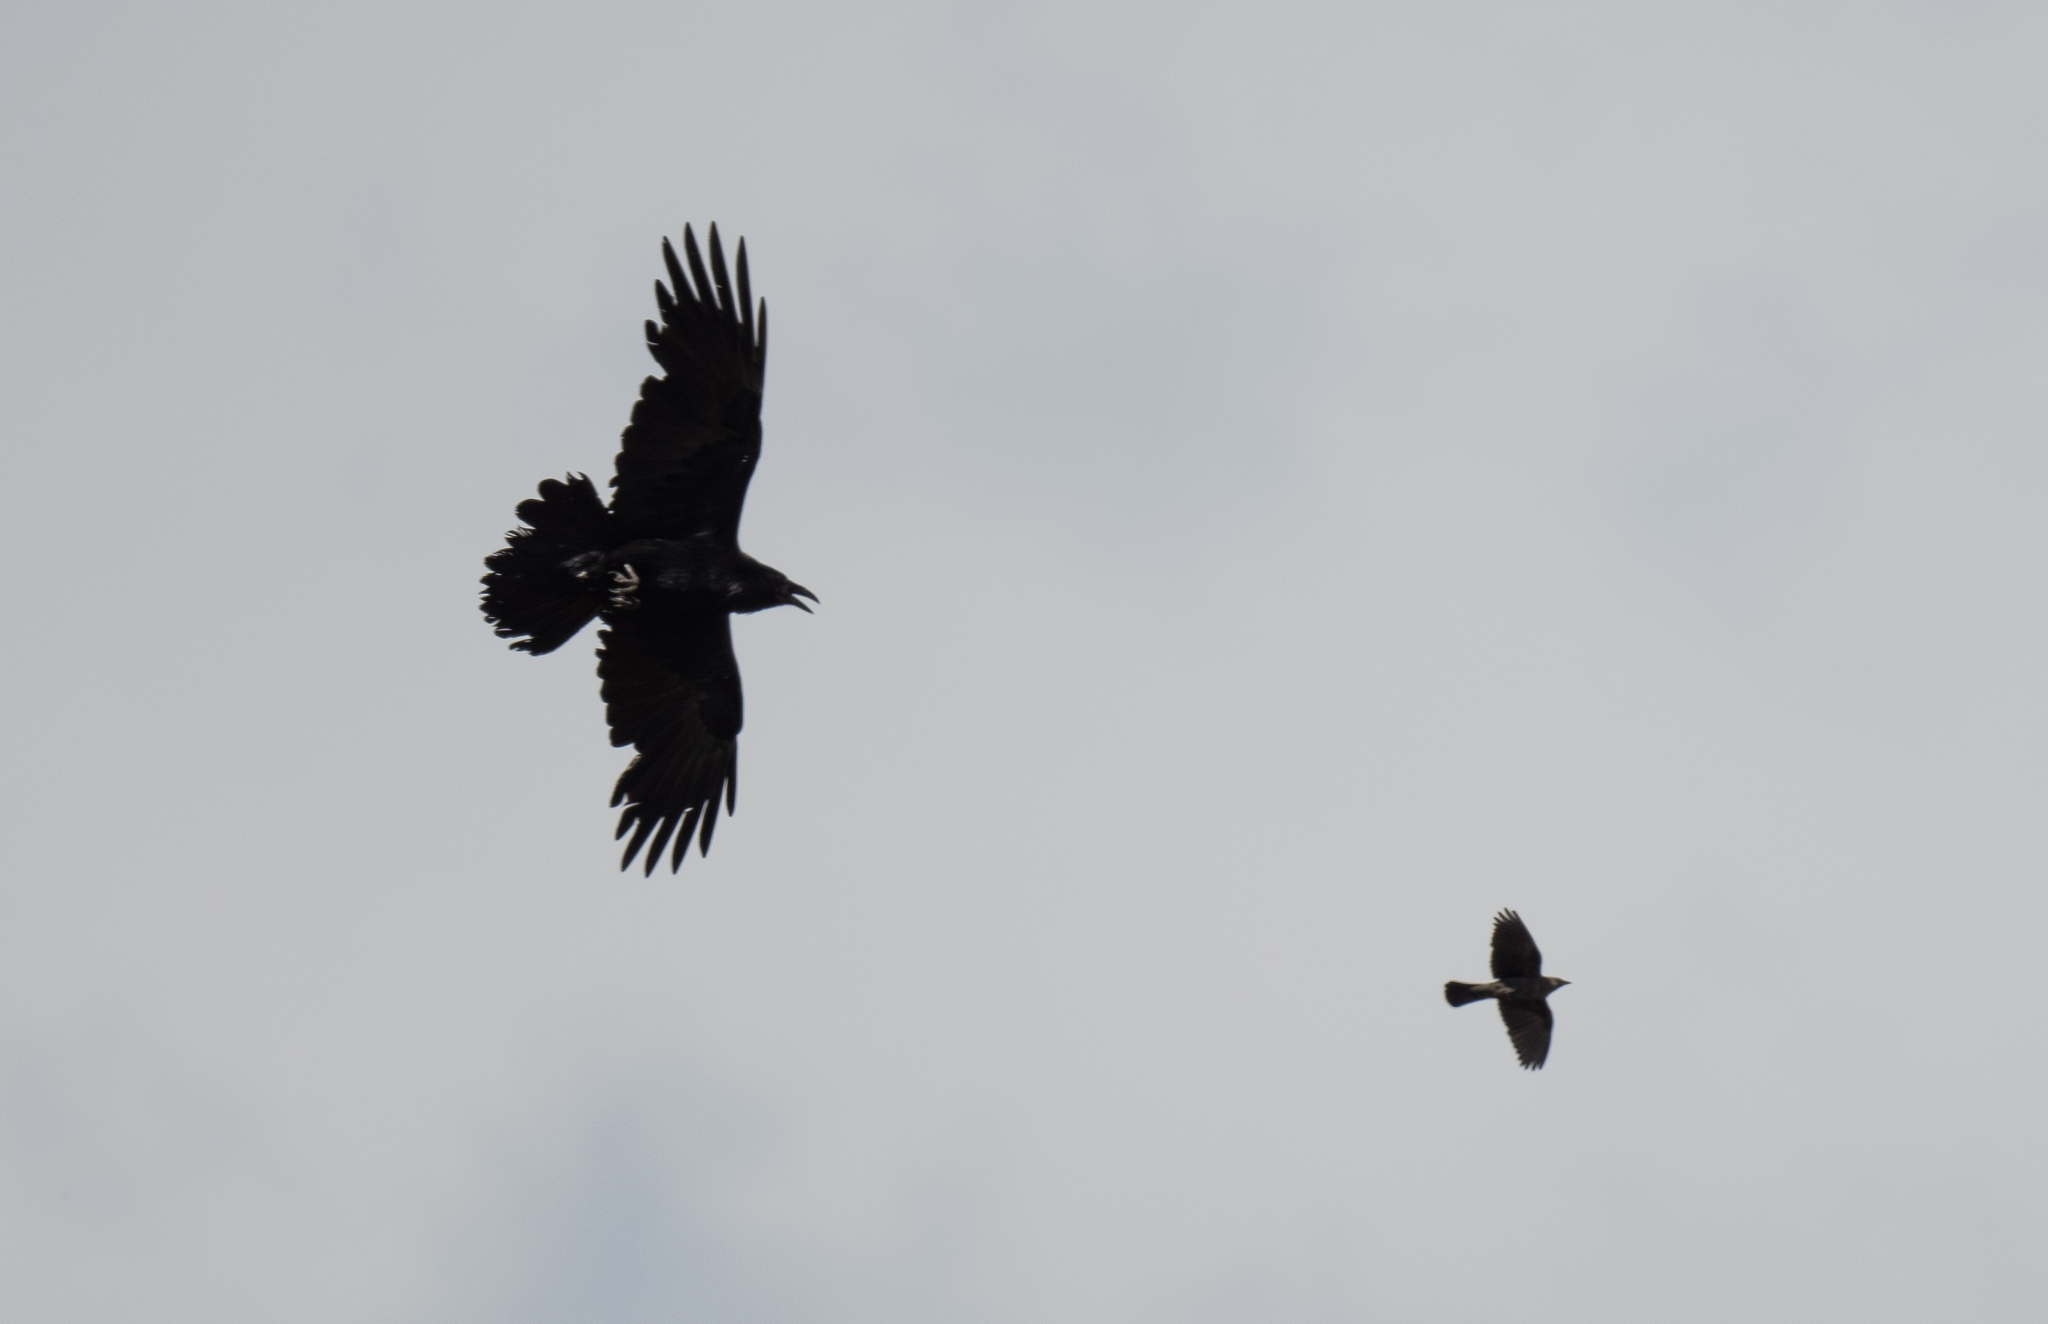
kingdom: Animalia
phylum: Chordata
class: Aves
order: Passeriformes
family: Corvidae
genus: Corvus
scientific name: Corvus corax
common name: Common raven
